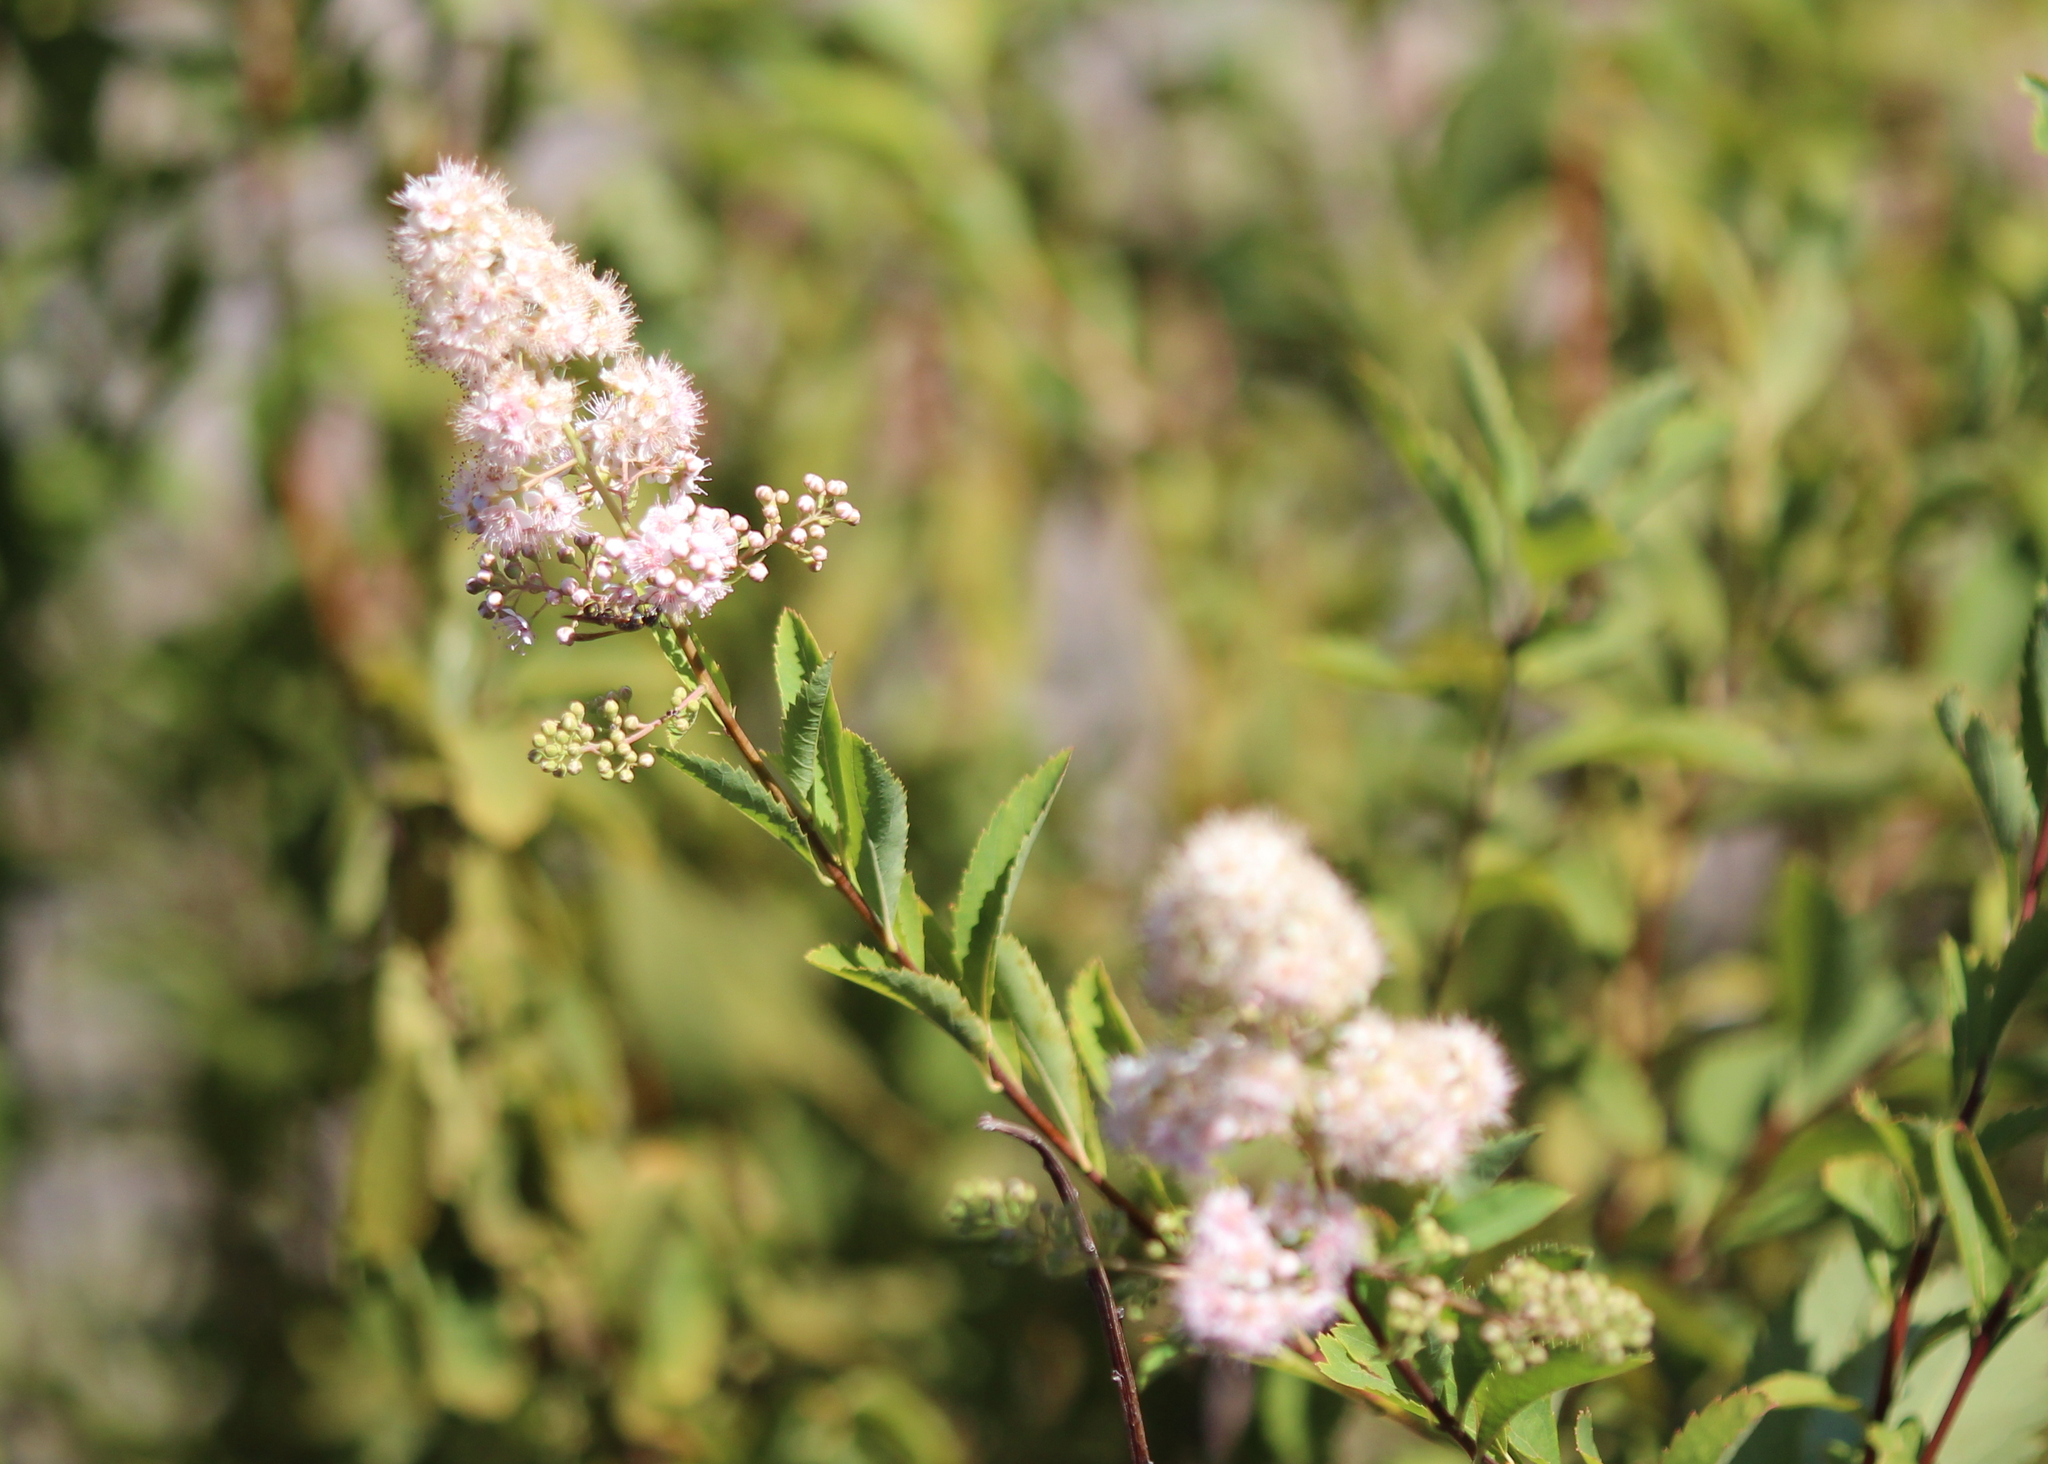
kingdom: Plantae
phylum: Tracheophyta
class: Magnoliopsida
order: Rosales
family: Rosaceae
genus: Spiraea
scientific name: Spiraea alba
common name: Pale bridewort
